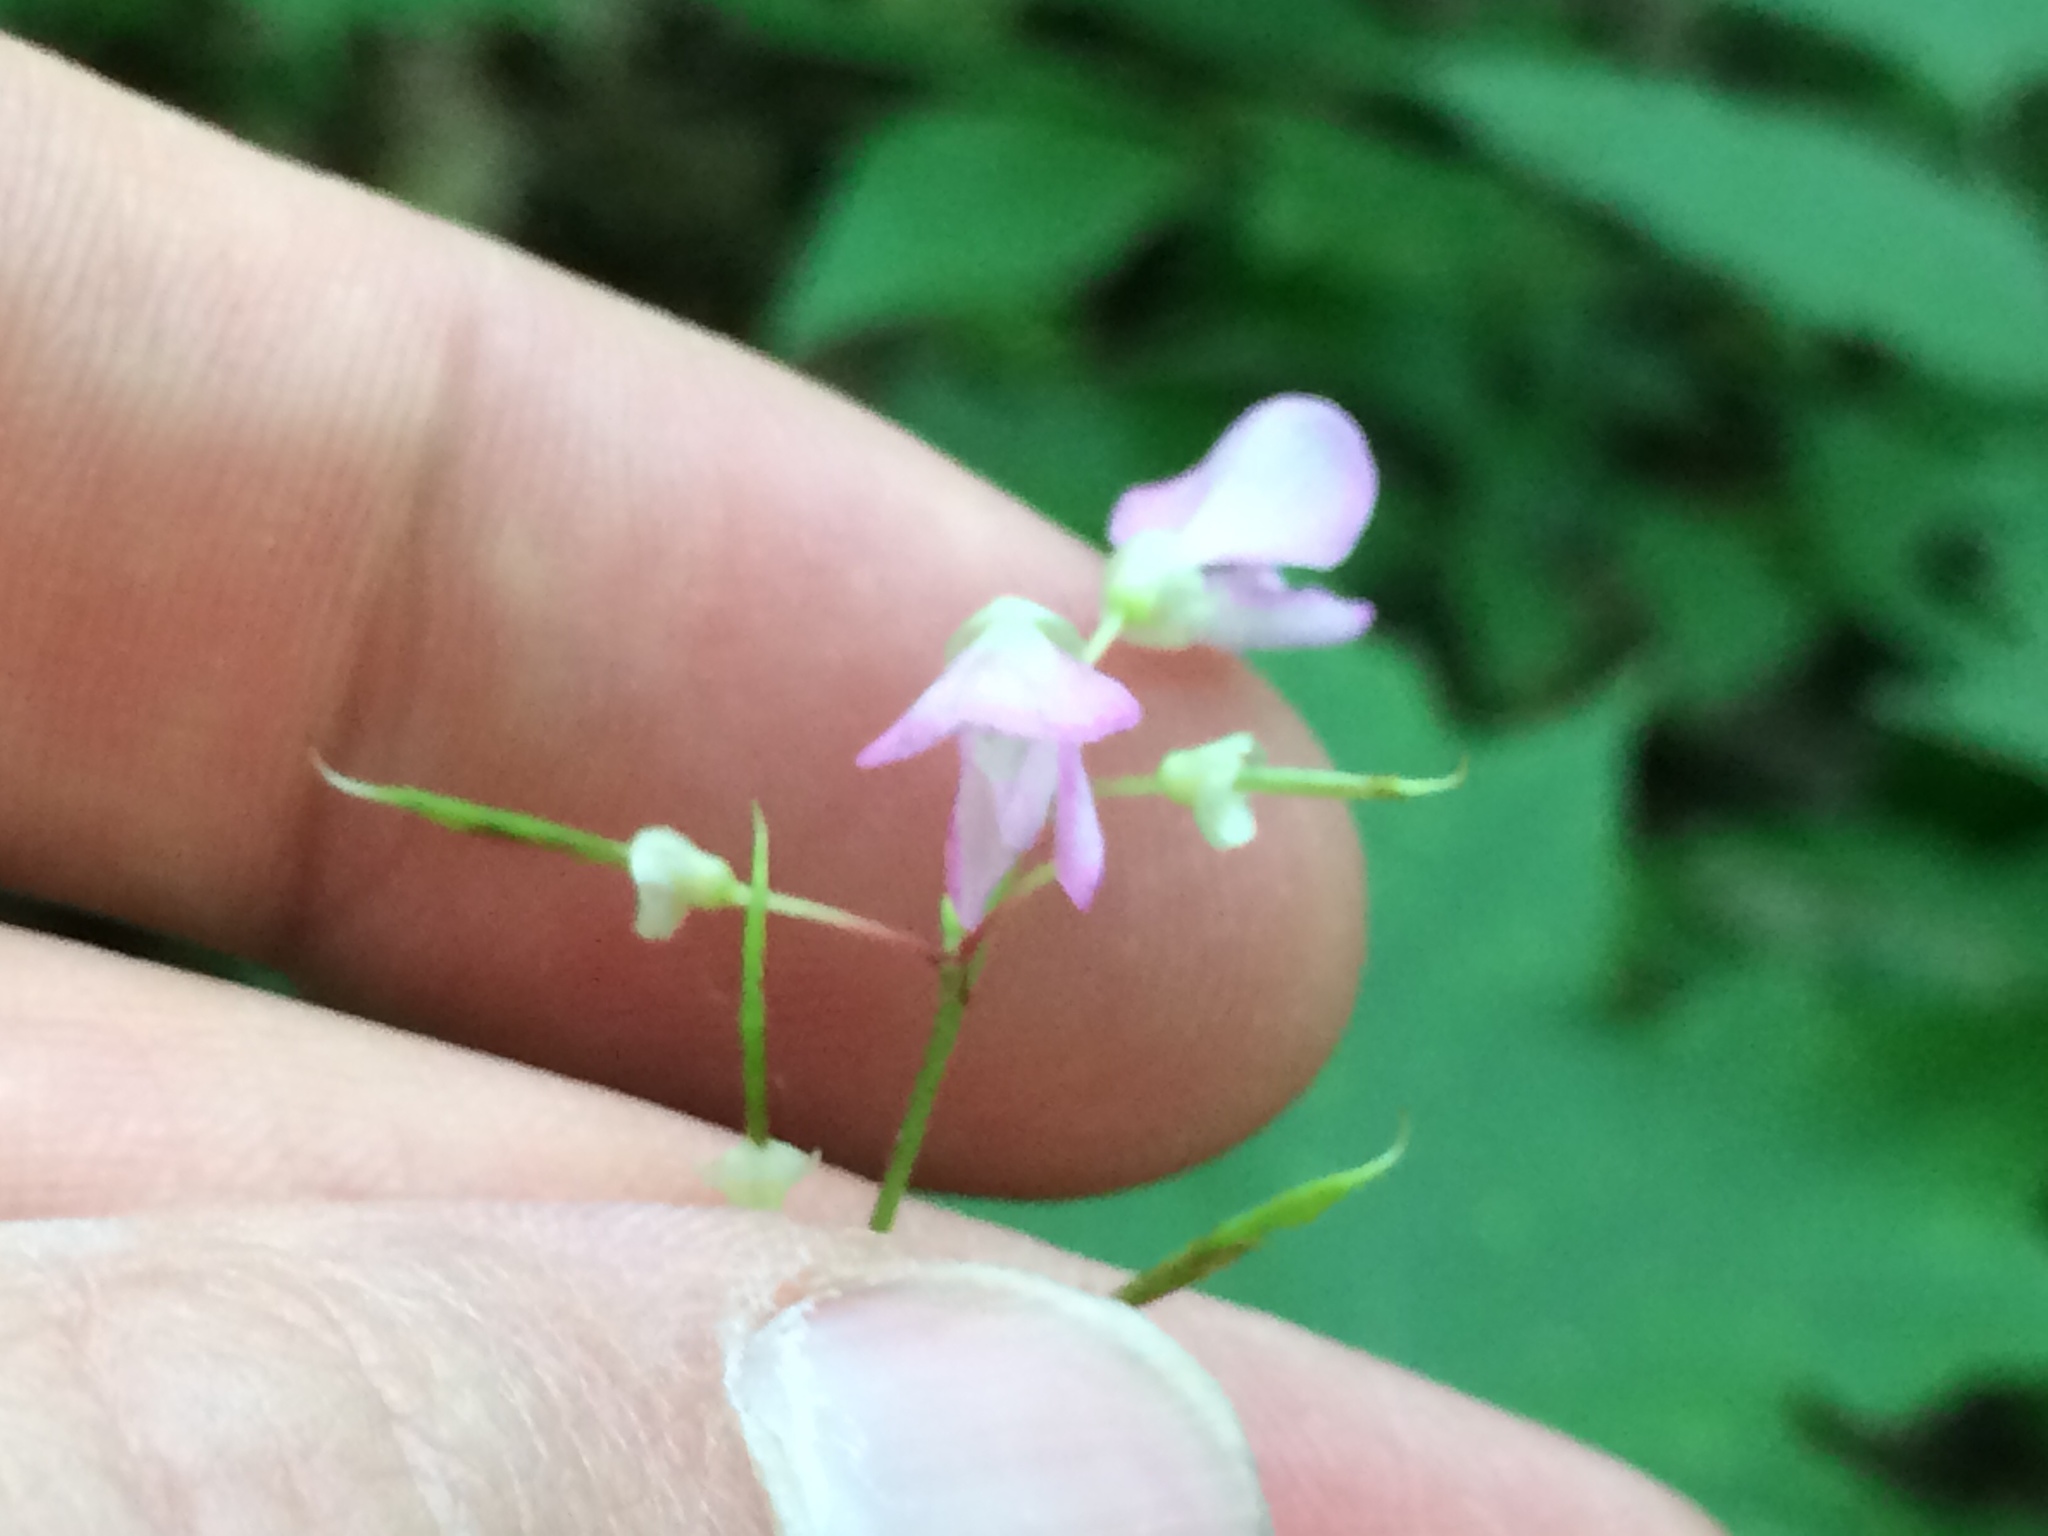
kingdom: Plantae
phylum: Tracheophyta
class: Magnoliopsida
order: Fabales
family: Fabaceae
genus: Hylodesmum
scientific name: Hylodesmum glutinosum
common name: Clustered-leaved tick-trefoil
